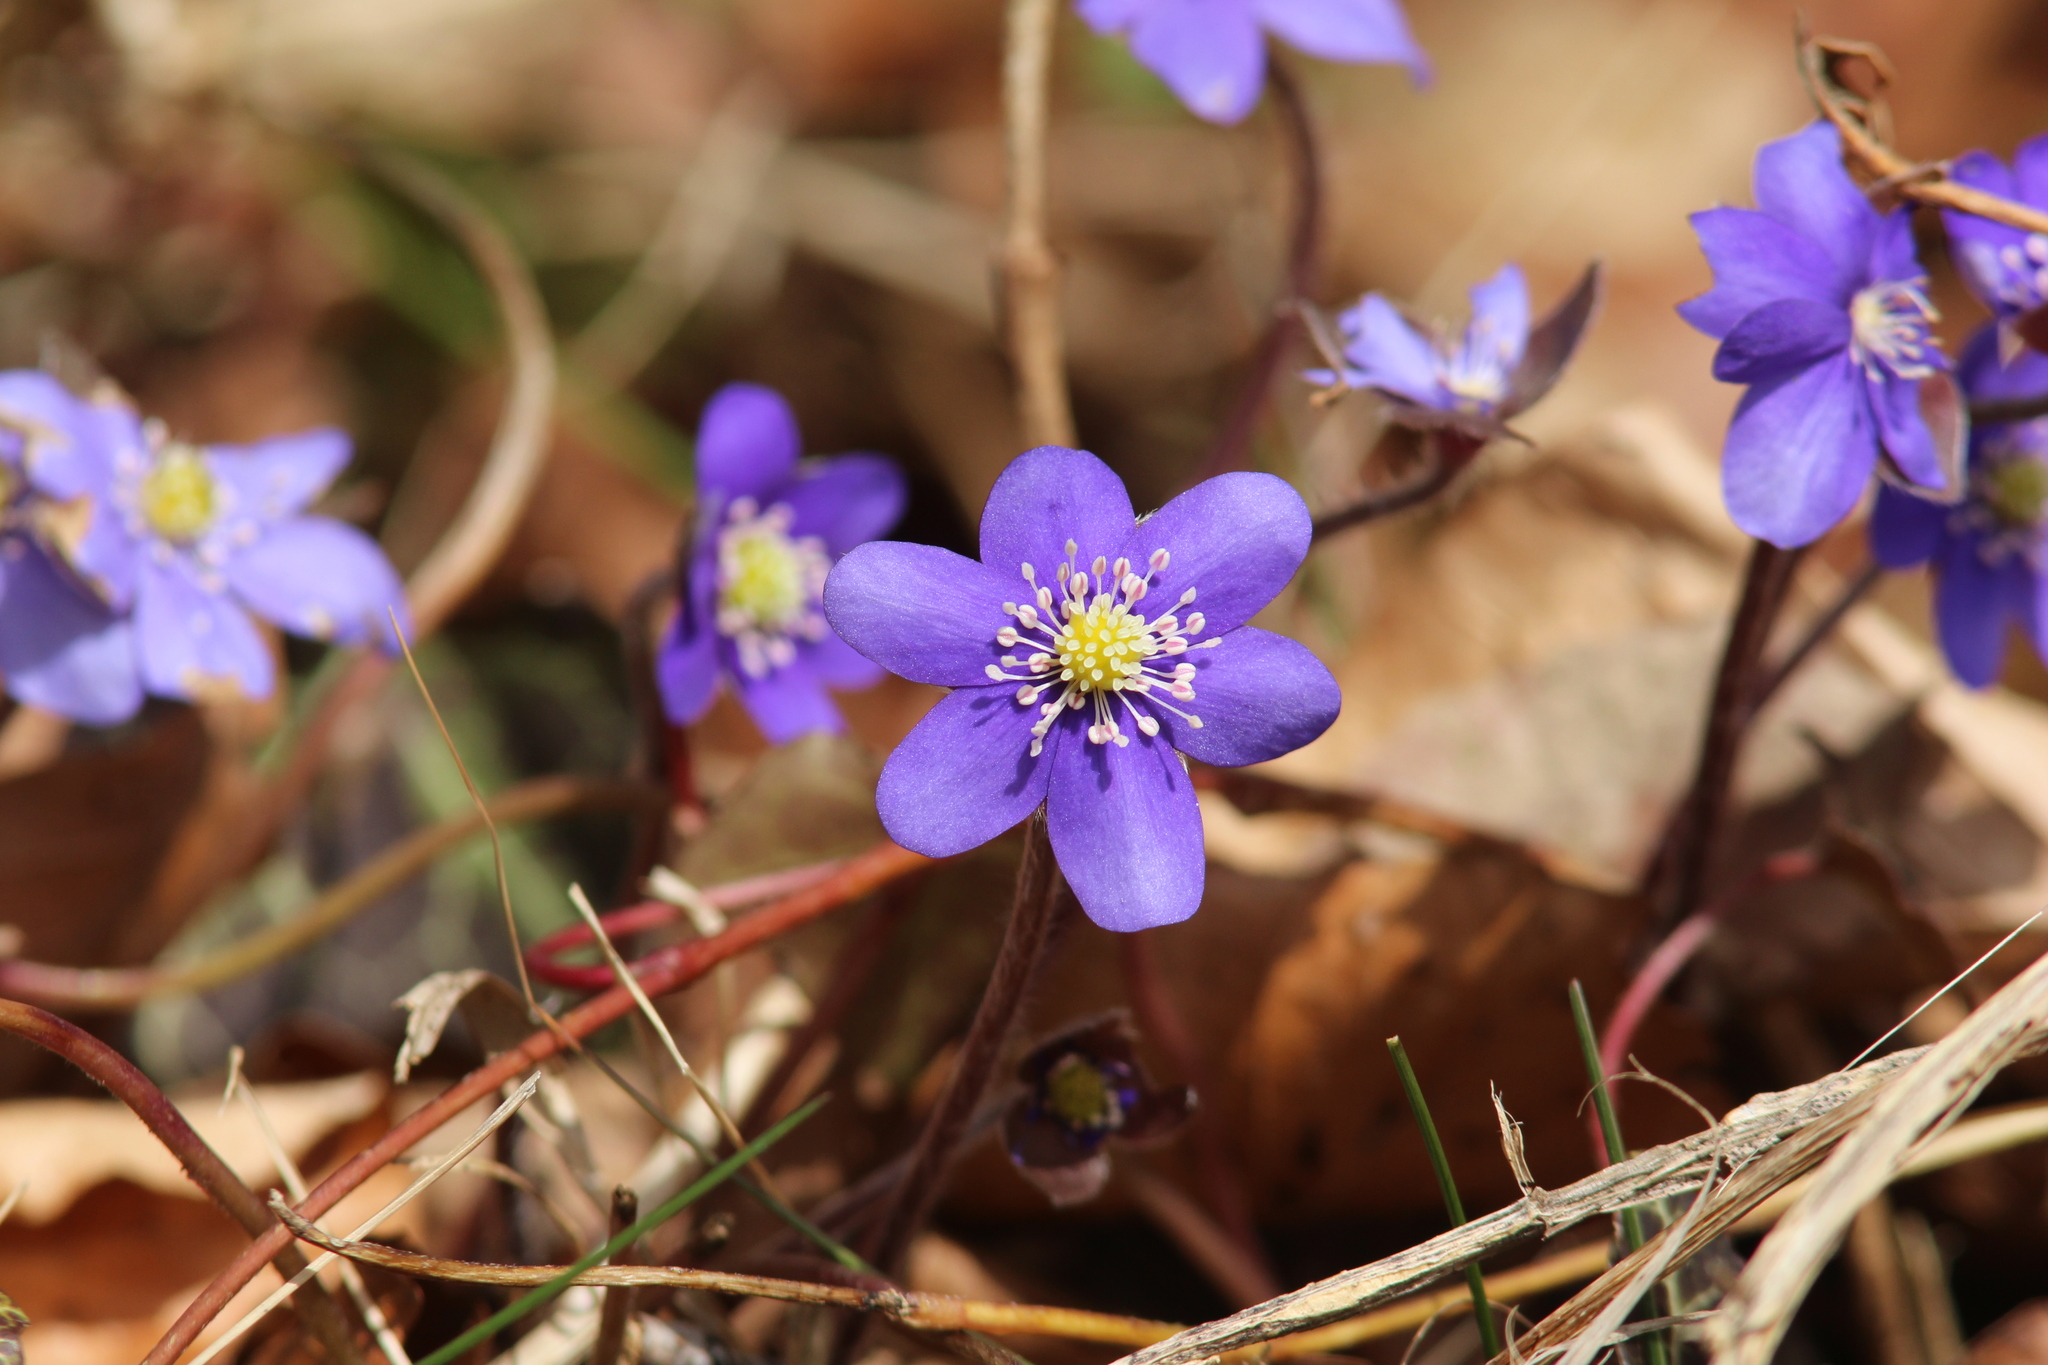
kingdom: Plantae
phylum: Tracheophyta
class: Magnoliopsida
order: Ranunculales
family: Ranunculaceae
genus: Hepatica
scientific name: Hepatica nobilis
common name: Liverleaf
